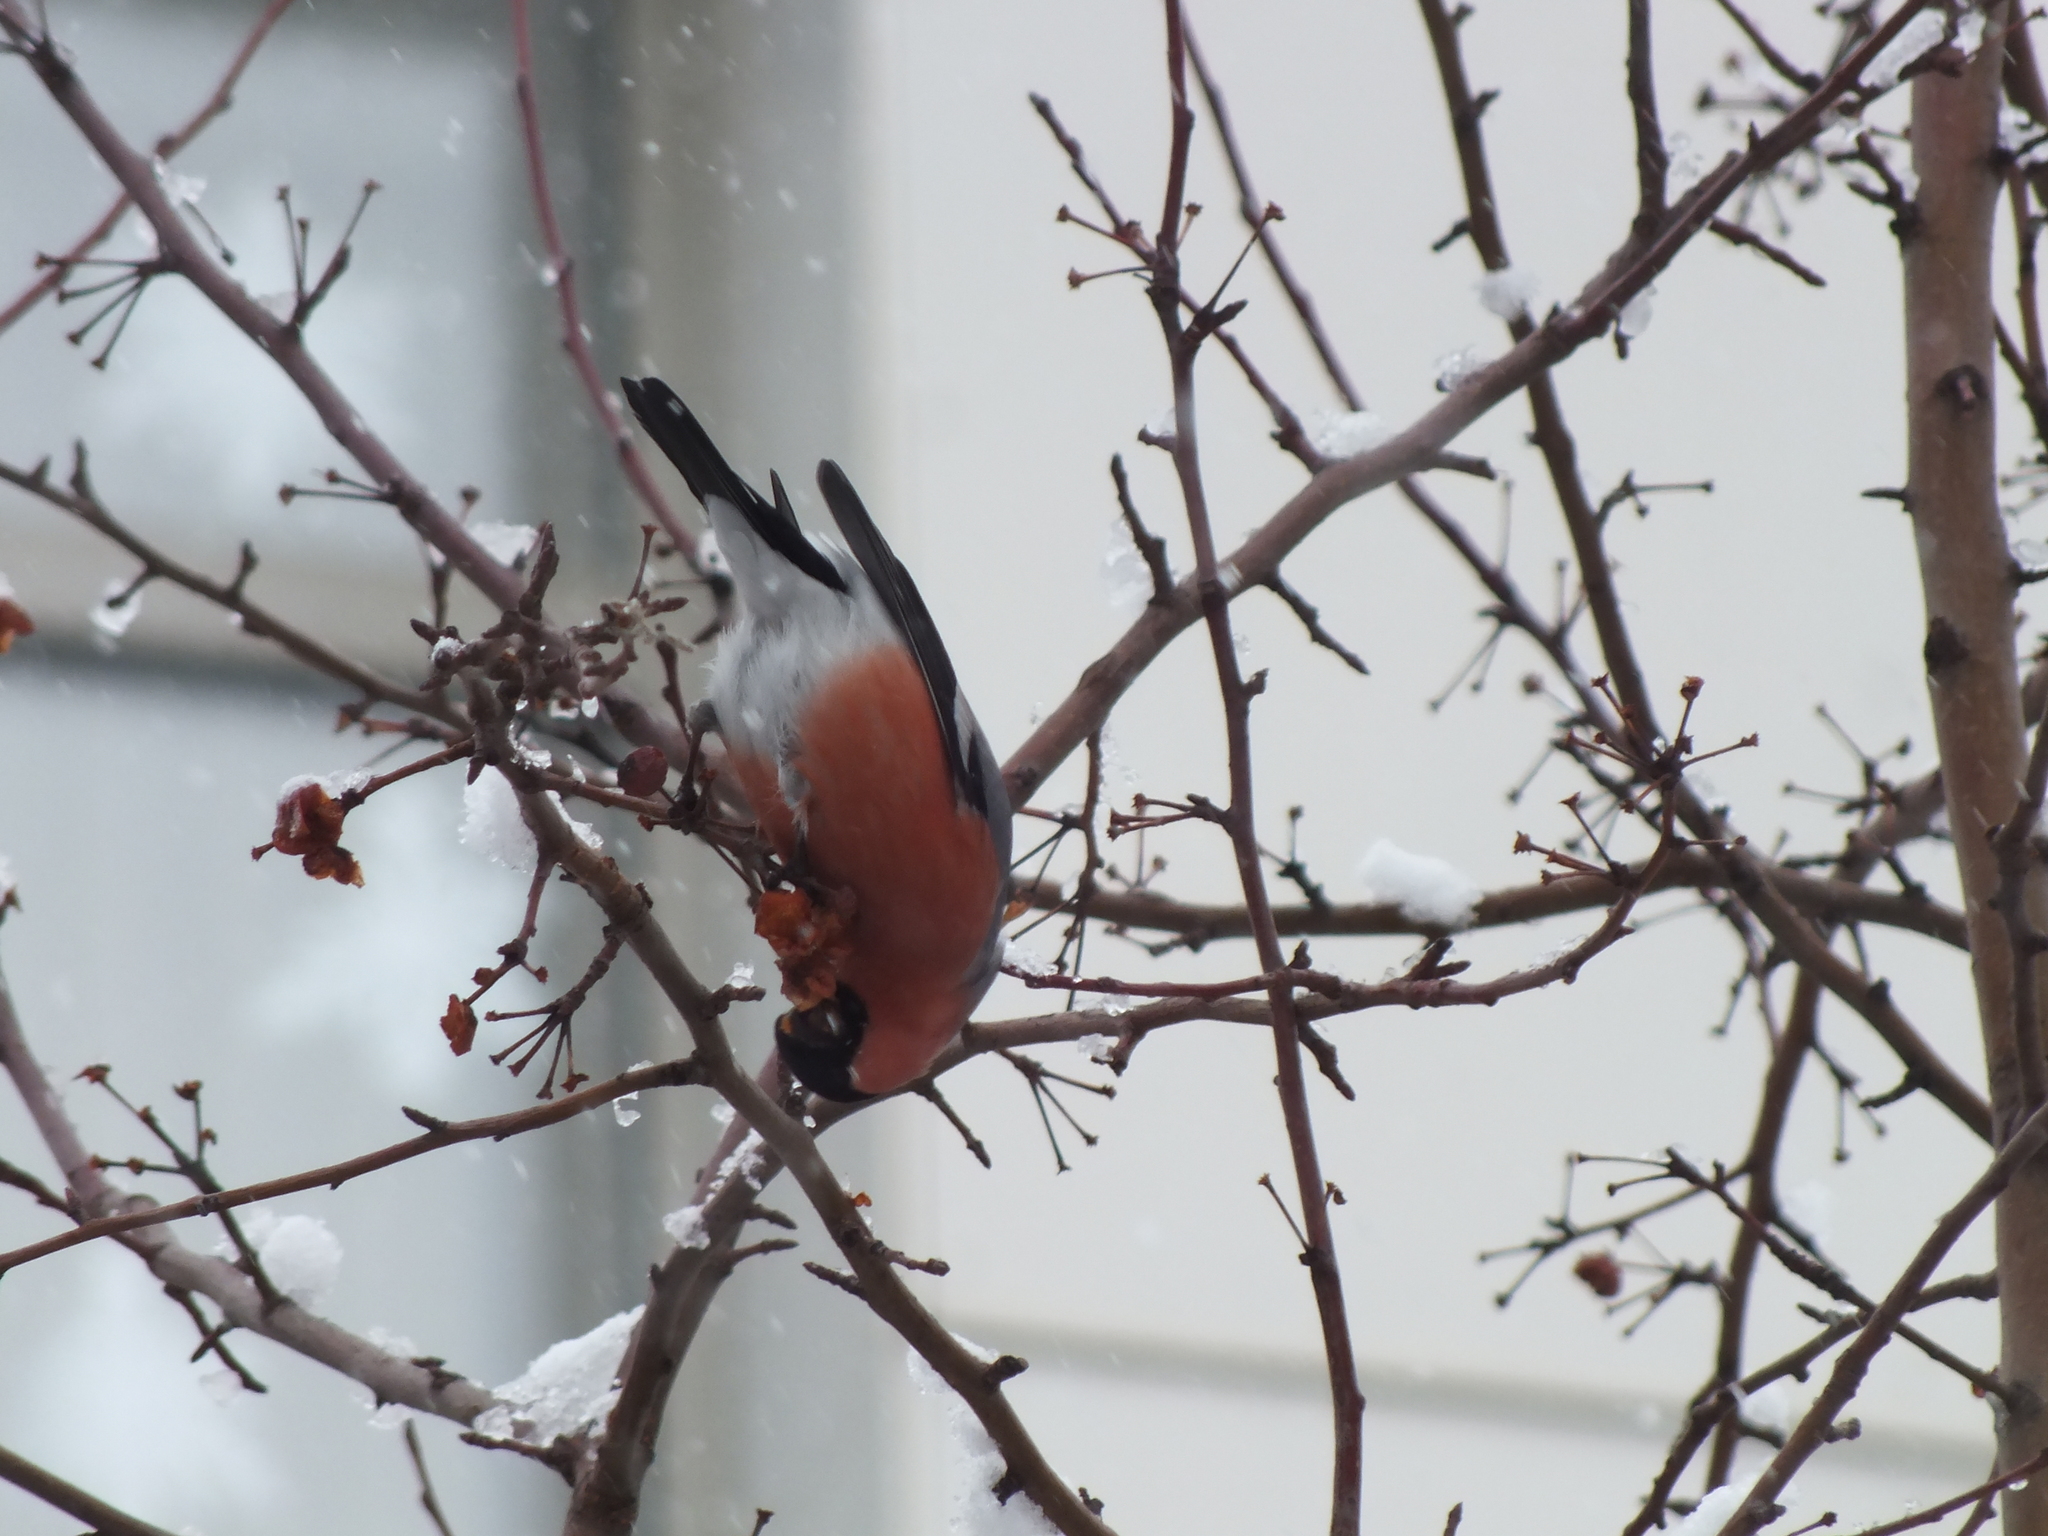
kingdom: Animalia
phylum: Chordata
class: Aves
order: Passeriformes
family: Fringillidae
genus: Pyrrhula
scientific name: Pyrrhula pyrrhula
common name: Eurasian bullfinch
